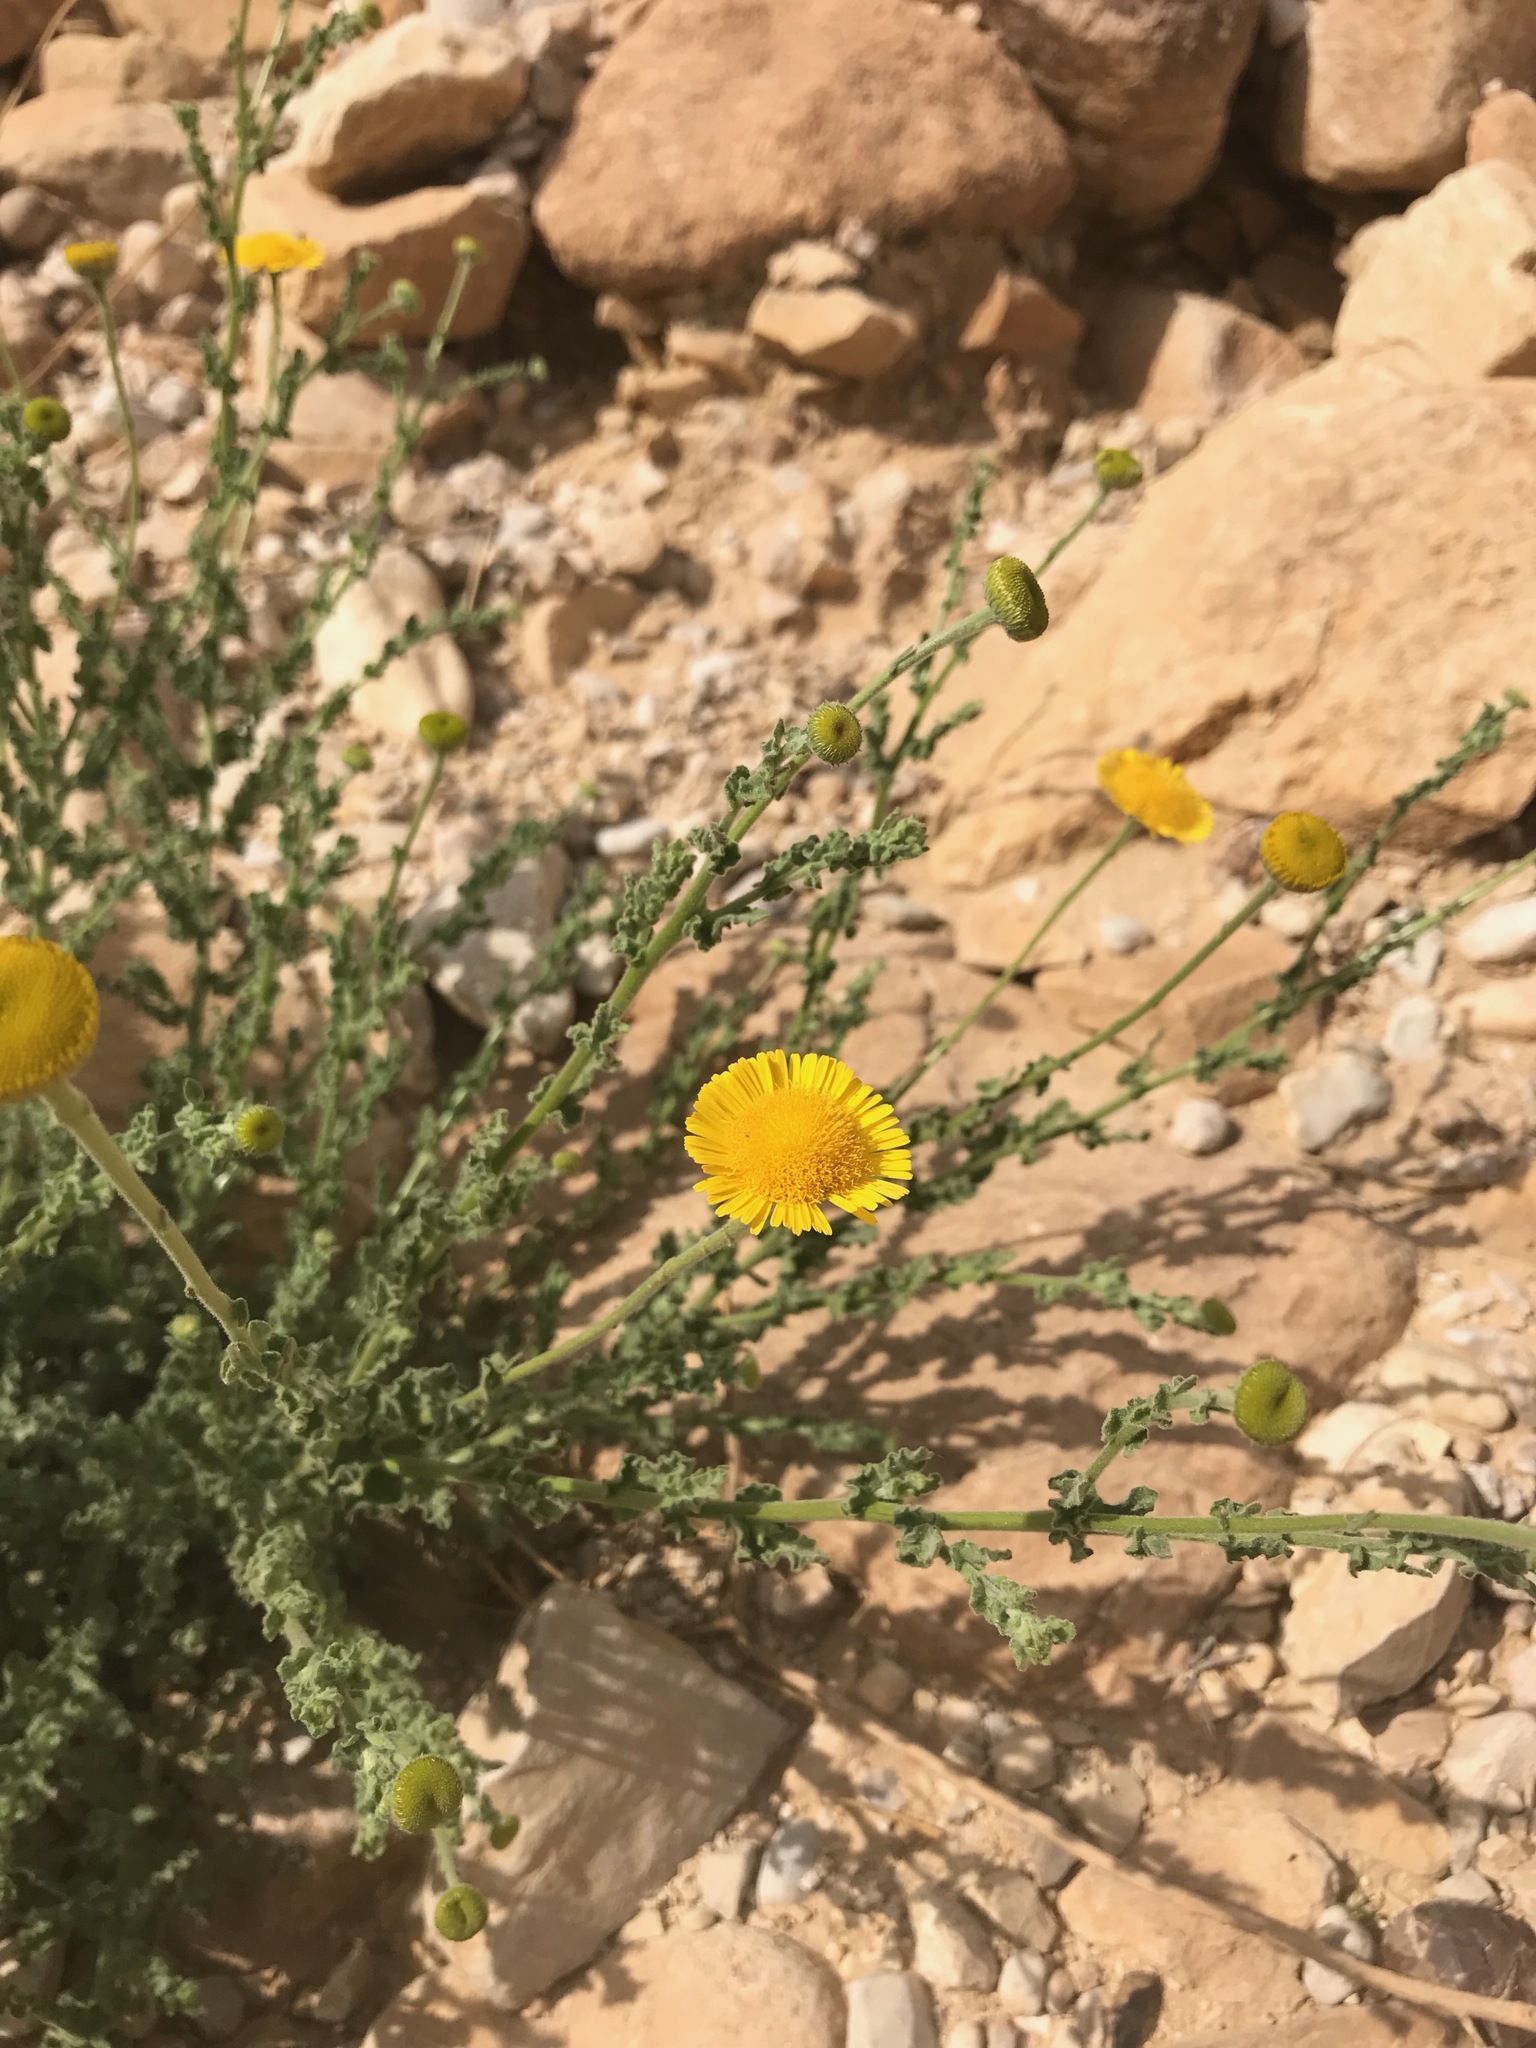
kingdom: Plantae
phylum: Tracheophyta
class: Magnoliopsida
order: Asterales
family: Asteraceae
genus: Pulicaria
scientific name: Pulicaria incisa
